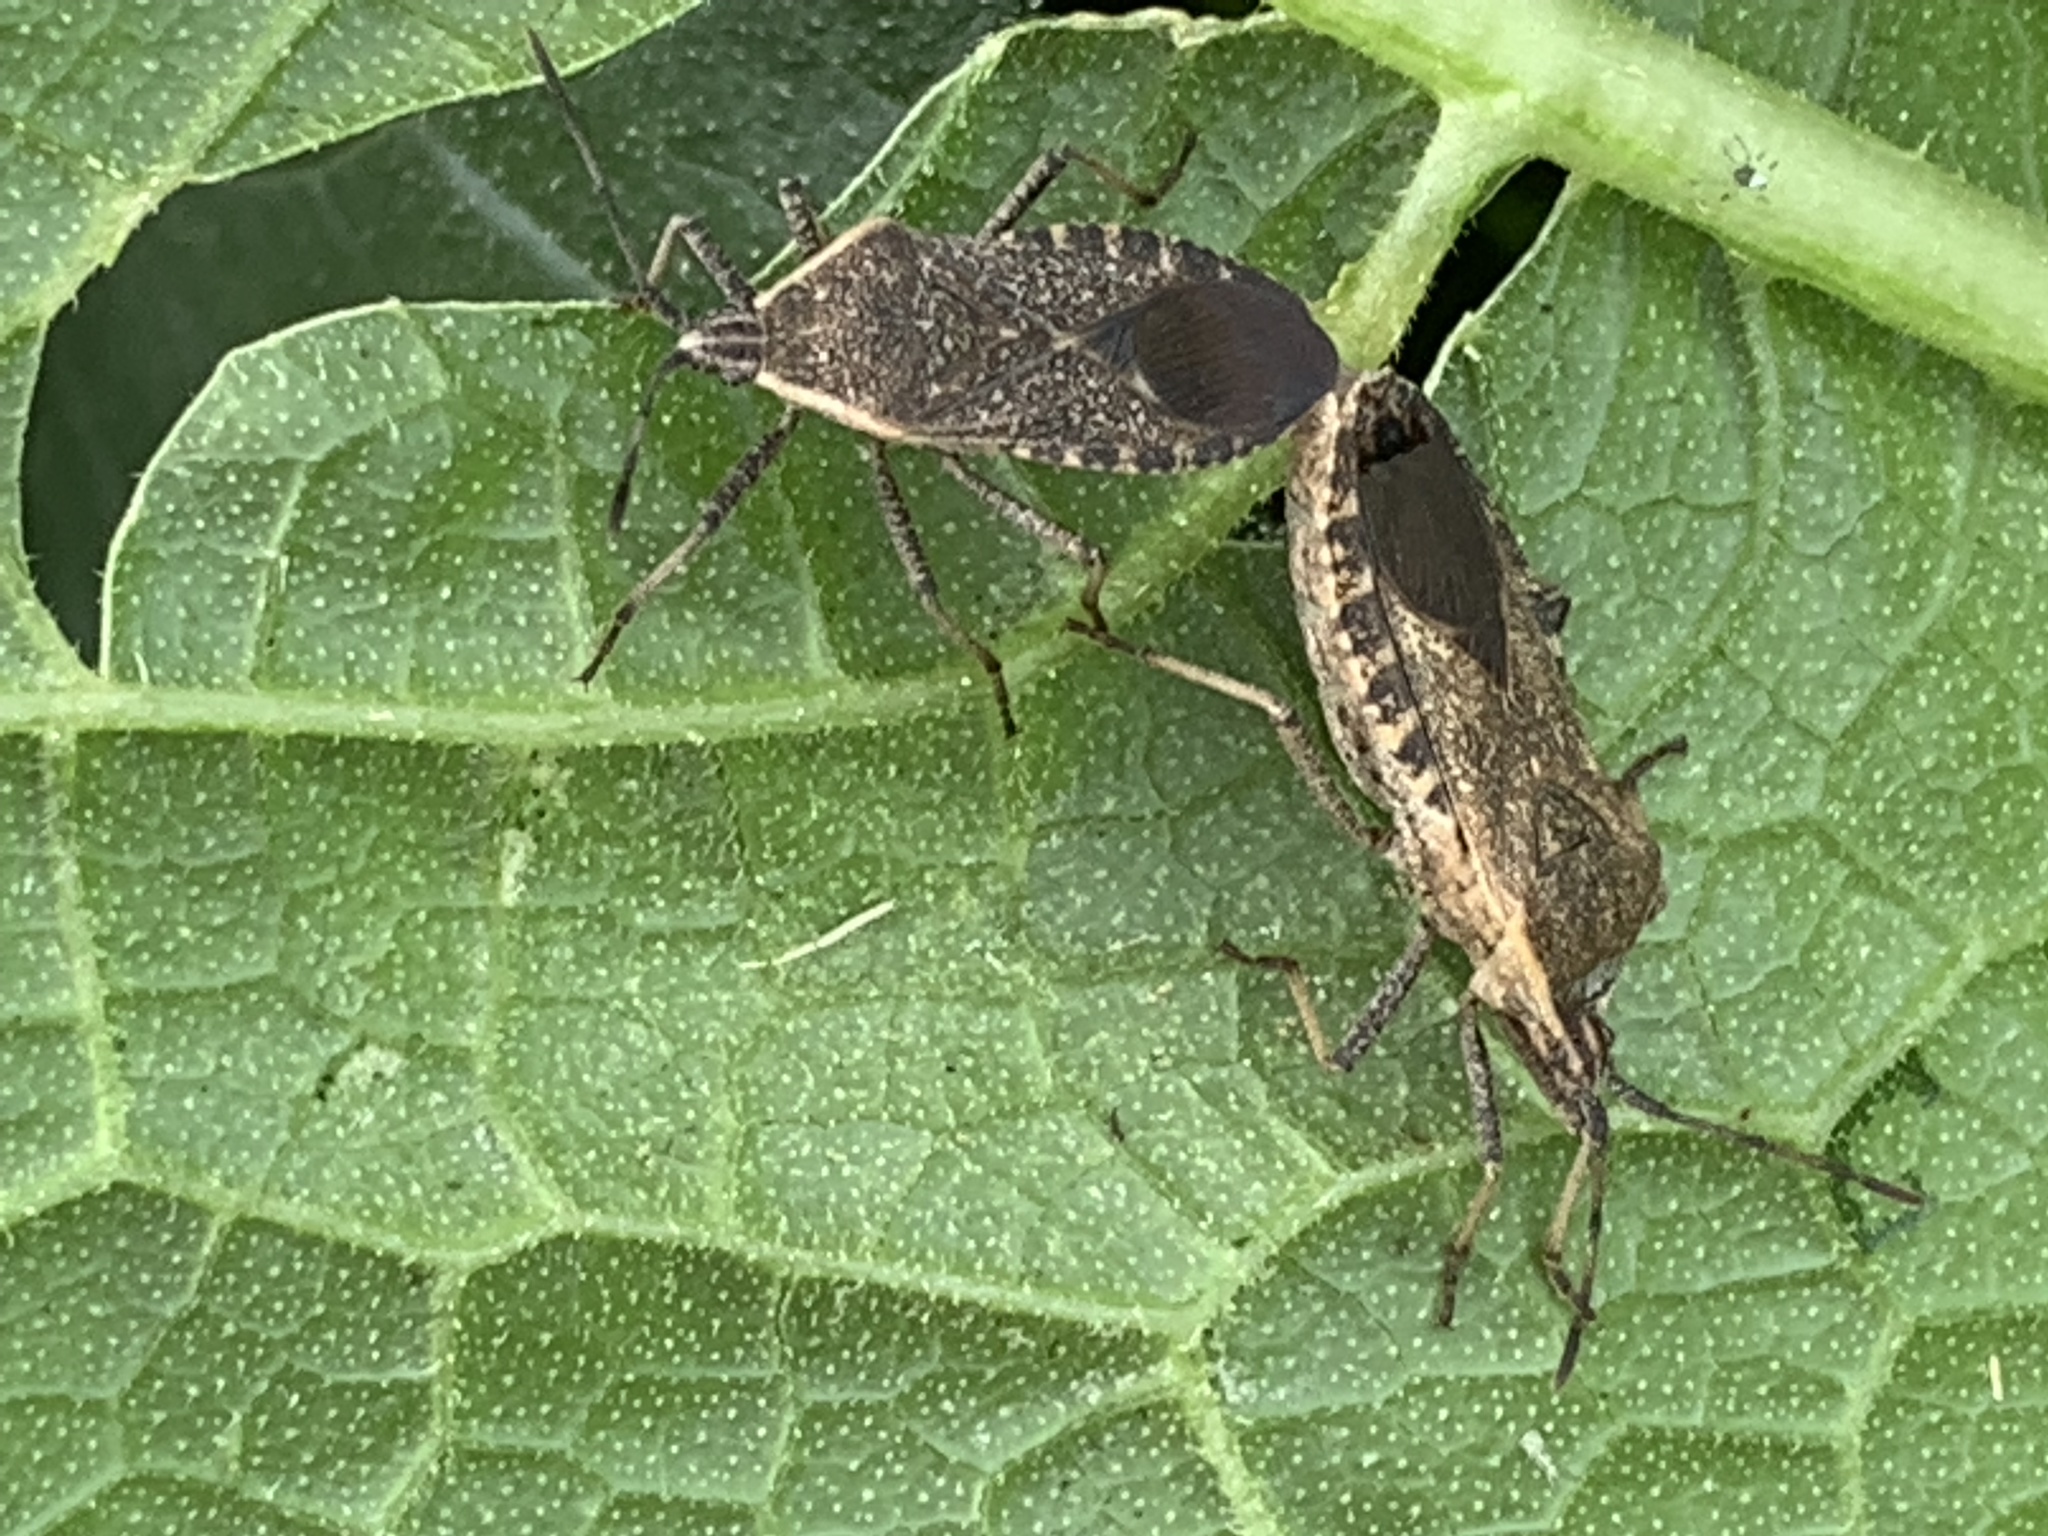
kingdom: Animalia
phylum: Arthropoda
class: Insecta
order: Hemiptera
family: Coreidae
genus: Anasa
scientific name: Anasa tristis
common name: Squash bug
